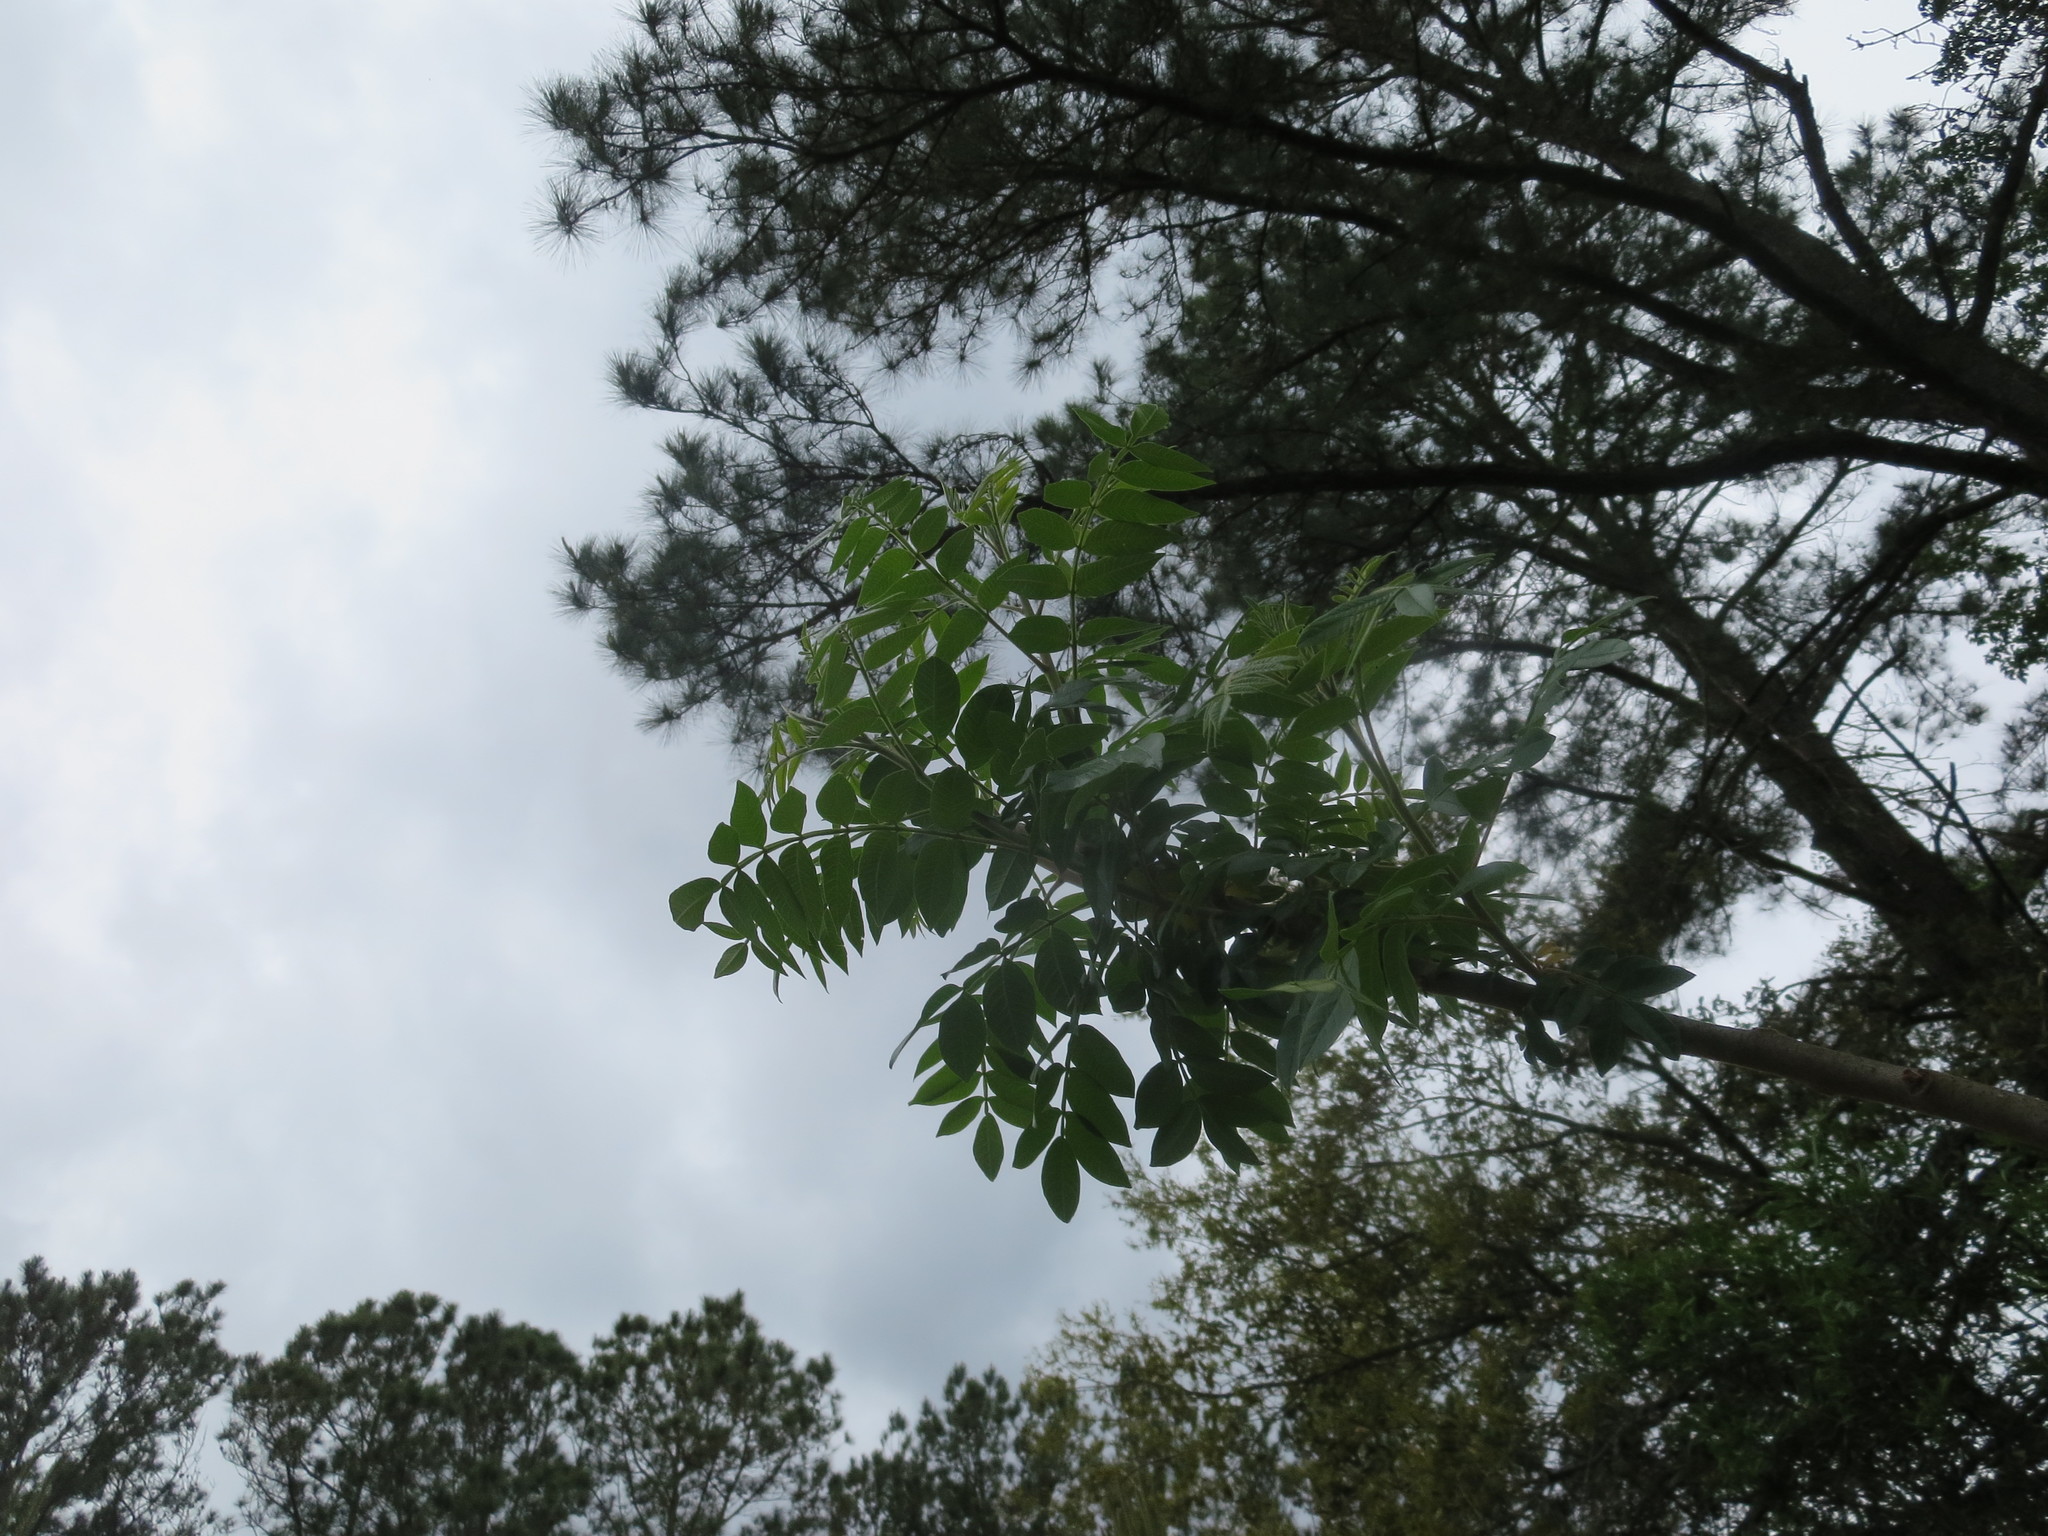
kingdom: Plantae
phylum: Tracheophyta
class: Magnoliopsida
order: Sapindales
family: Anacardiaceae
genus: Rhus
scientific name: Rhus copallina
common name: Shining sumac
